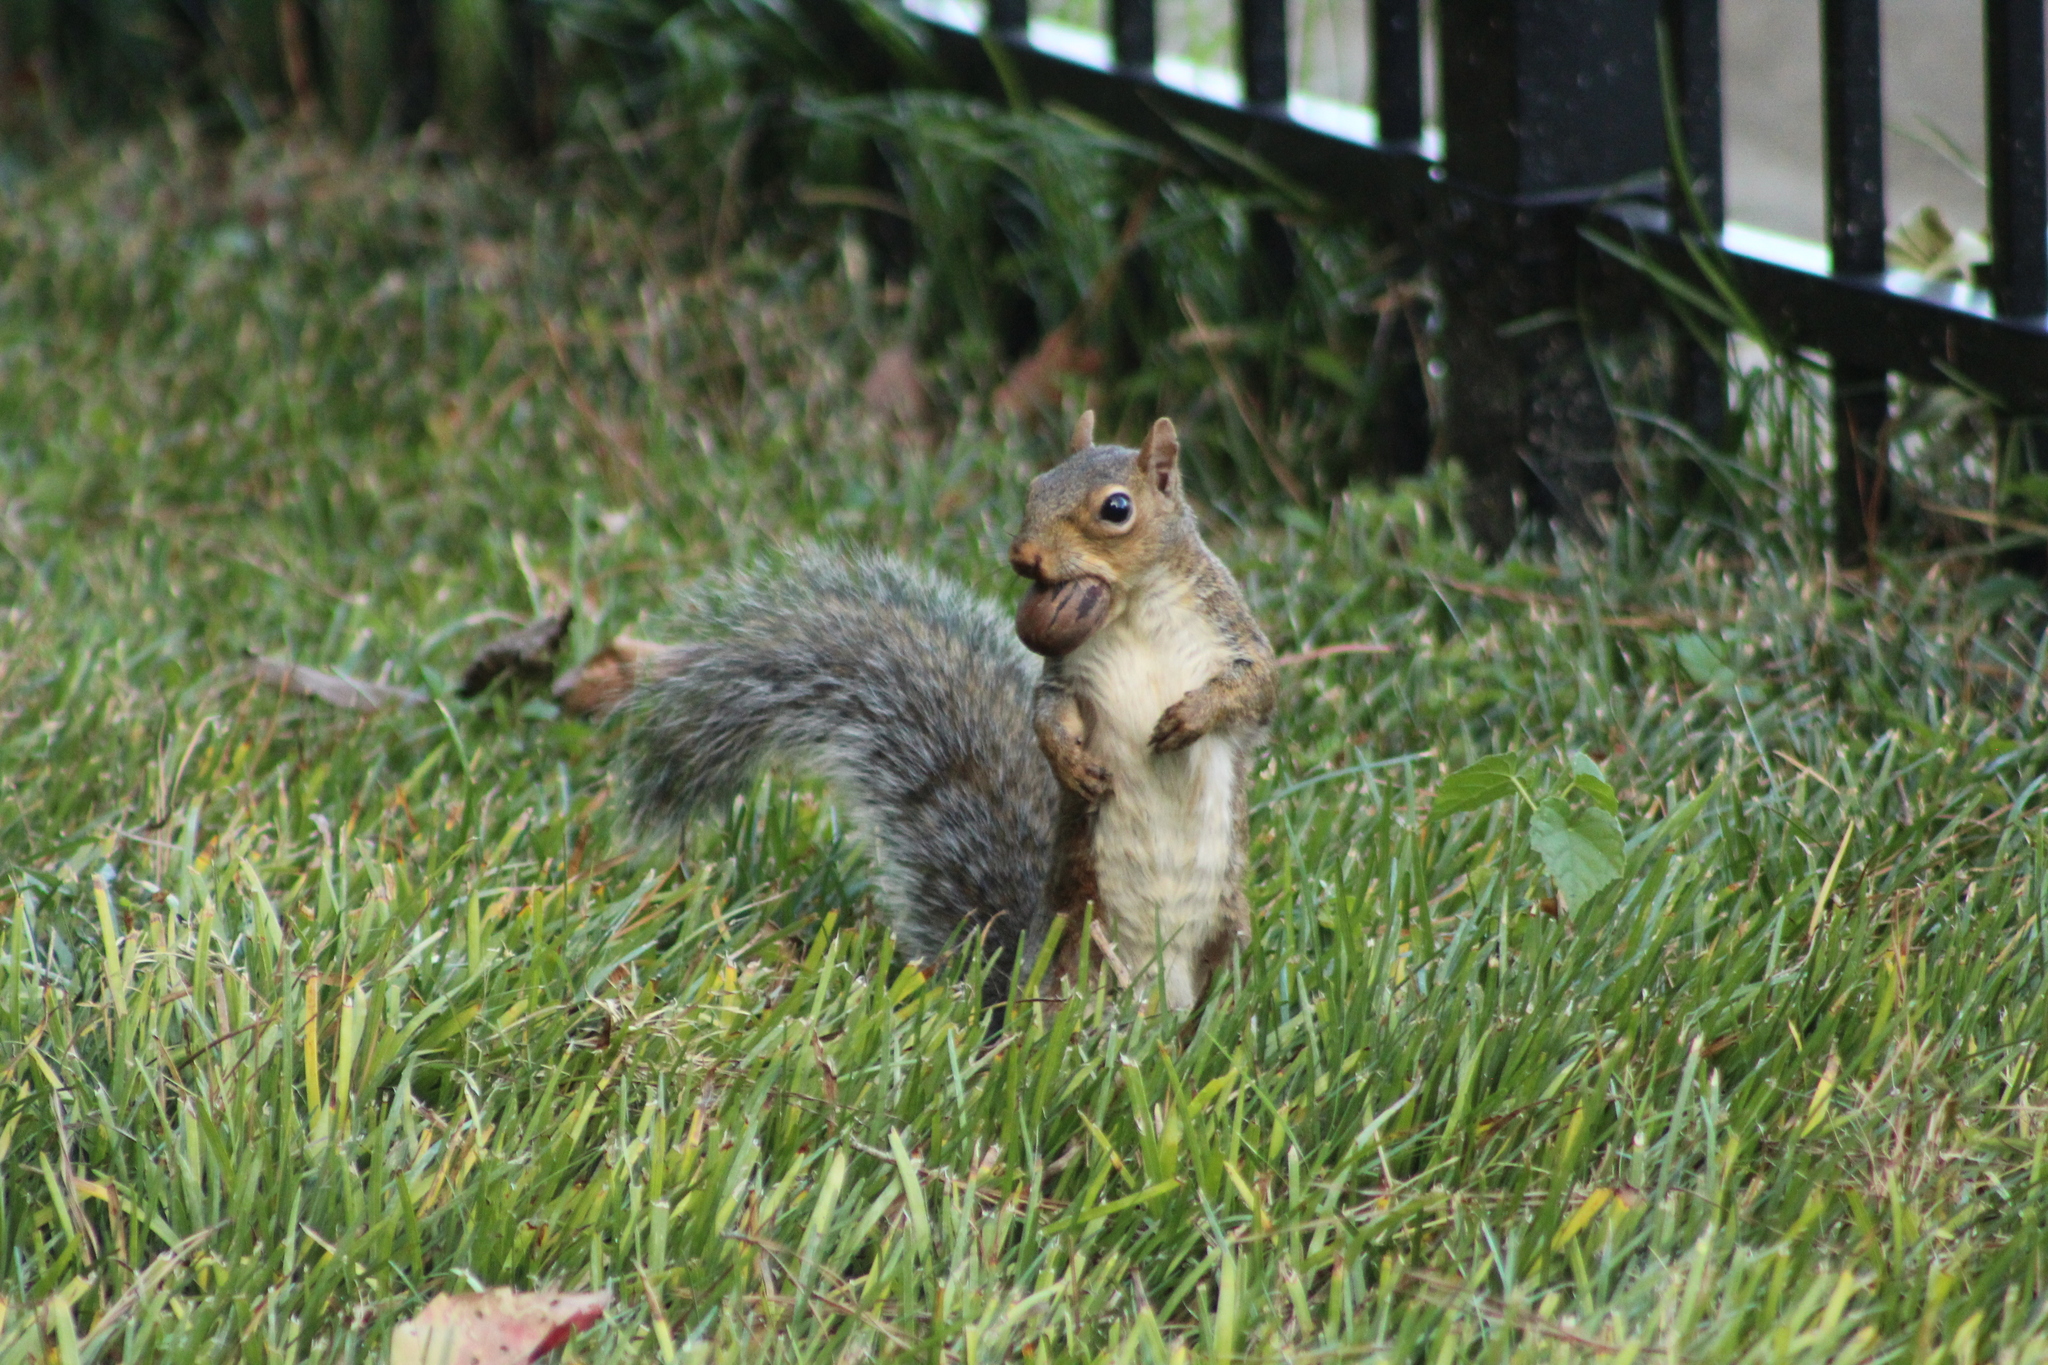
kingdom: Animalia
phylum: Chordata
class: Mammalia
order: Rodentia
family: Sciuridae
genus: Sciurus
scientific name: Sciurus carolinensis
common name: Eastern gray squirrel
